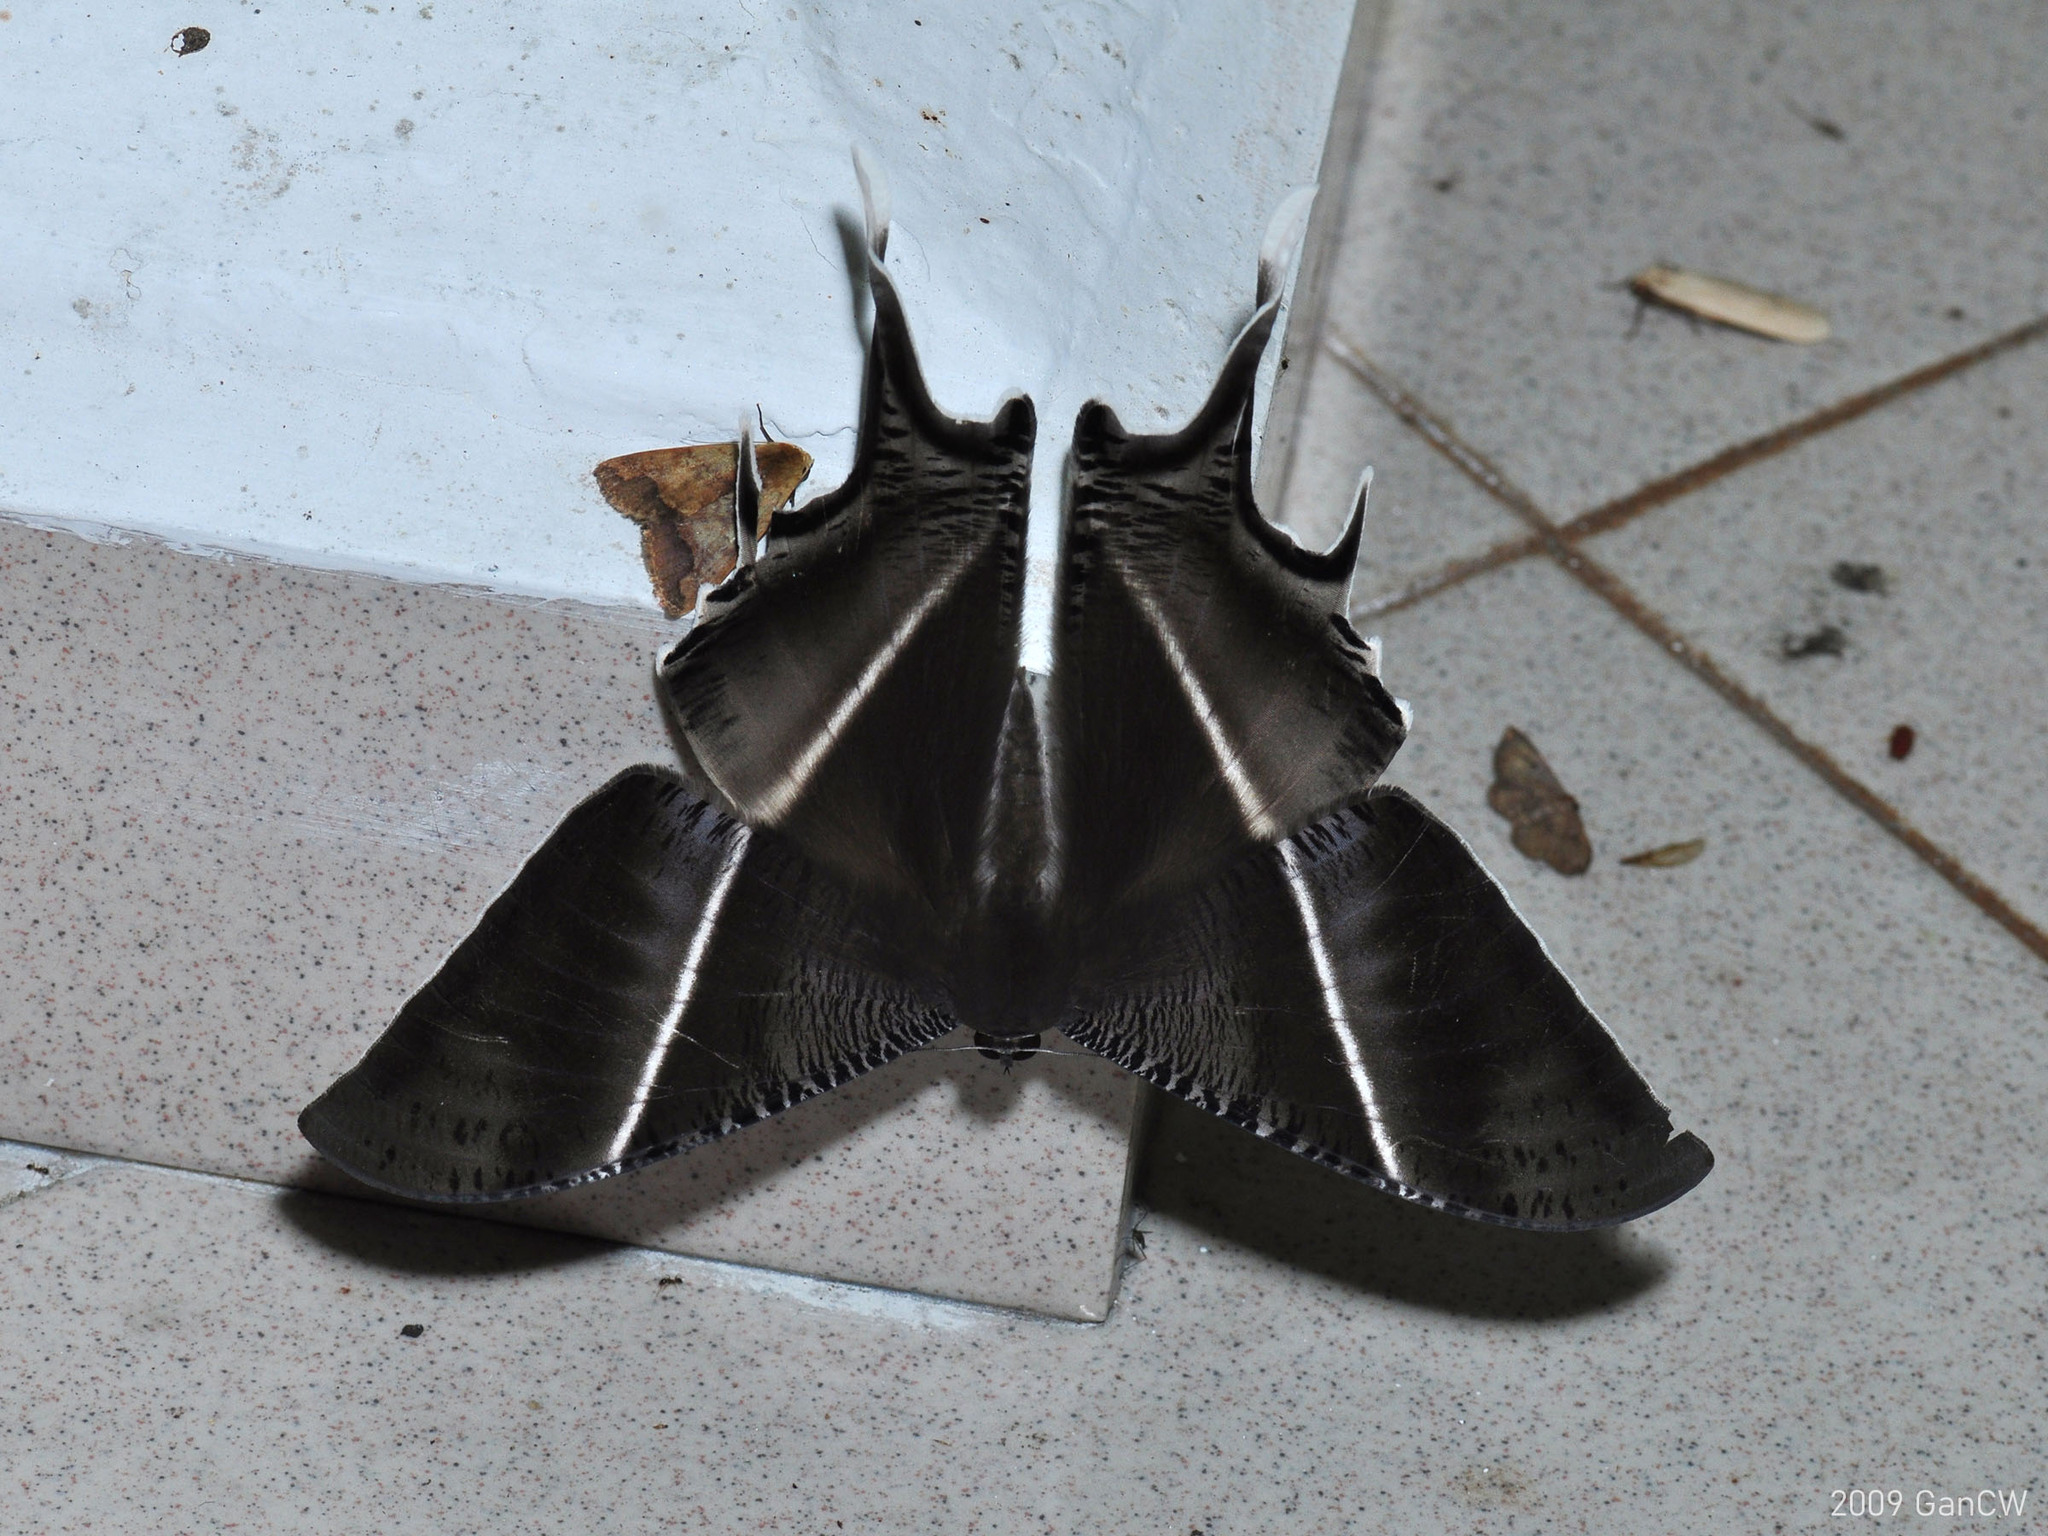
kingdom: Animalia
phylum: Arthropoda
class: Insecta
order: Lepidoptera
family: Uraniidae
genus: Lyssa
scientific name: Lyssa zampa
